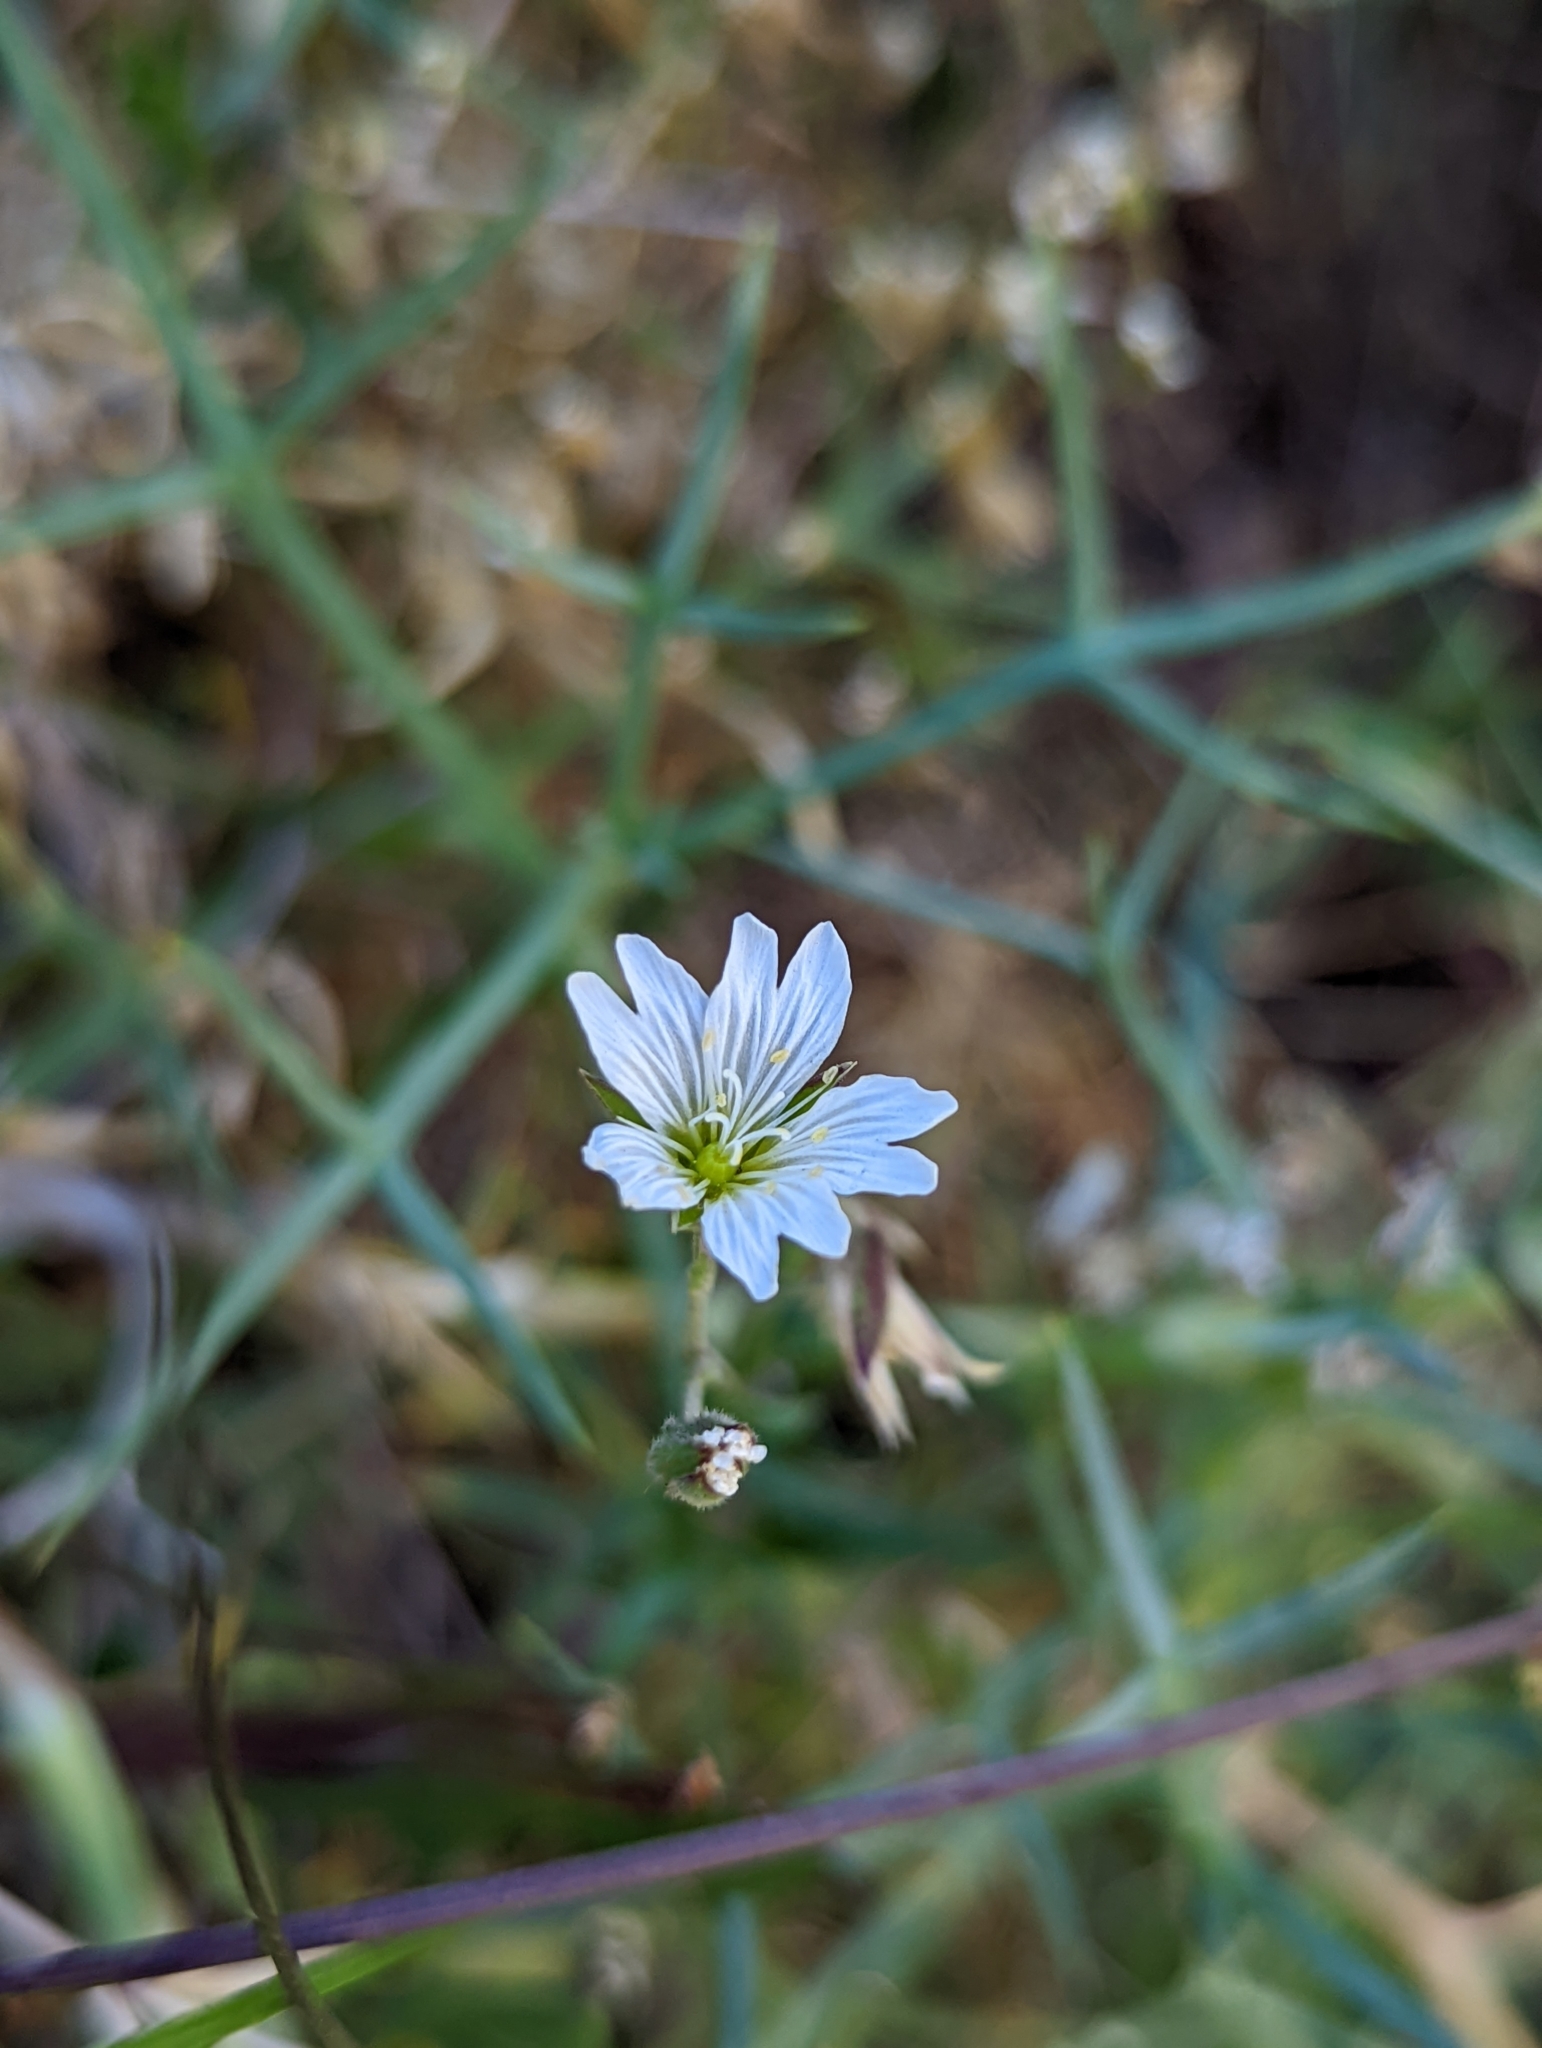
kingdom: Plantae
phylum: Tracheophyta
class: Magnoliopsida
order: Caryophyllales
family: Caryophyllaceae
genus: Cerastium
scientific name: Cerastium arvense
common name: Field mouse-ear
